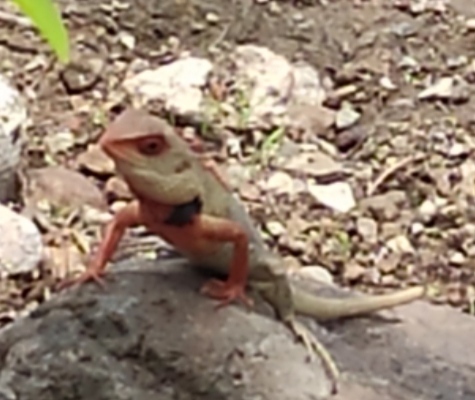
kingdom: Animalia
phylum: Chordata
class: Squamata
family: Agamidae
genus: Calotes
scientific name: Calotes versicolor
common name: Oriental garden lizard
